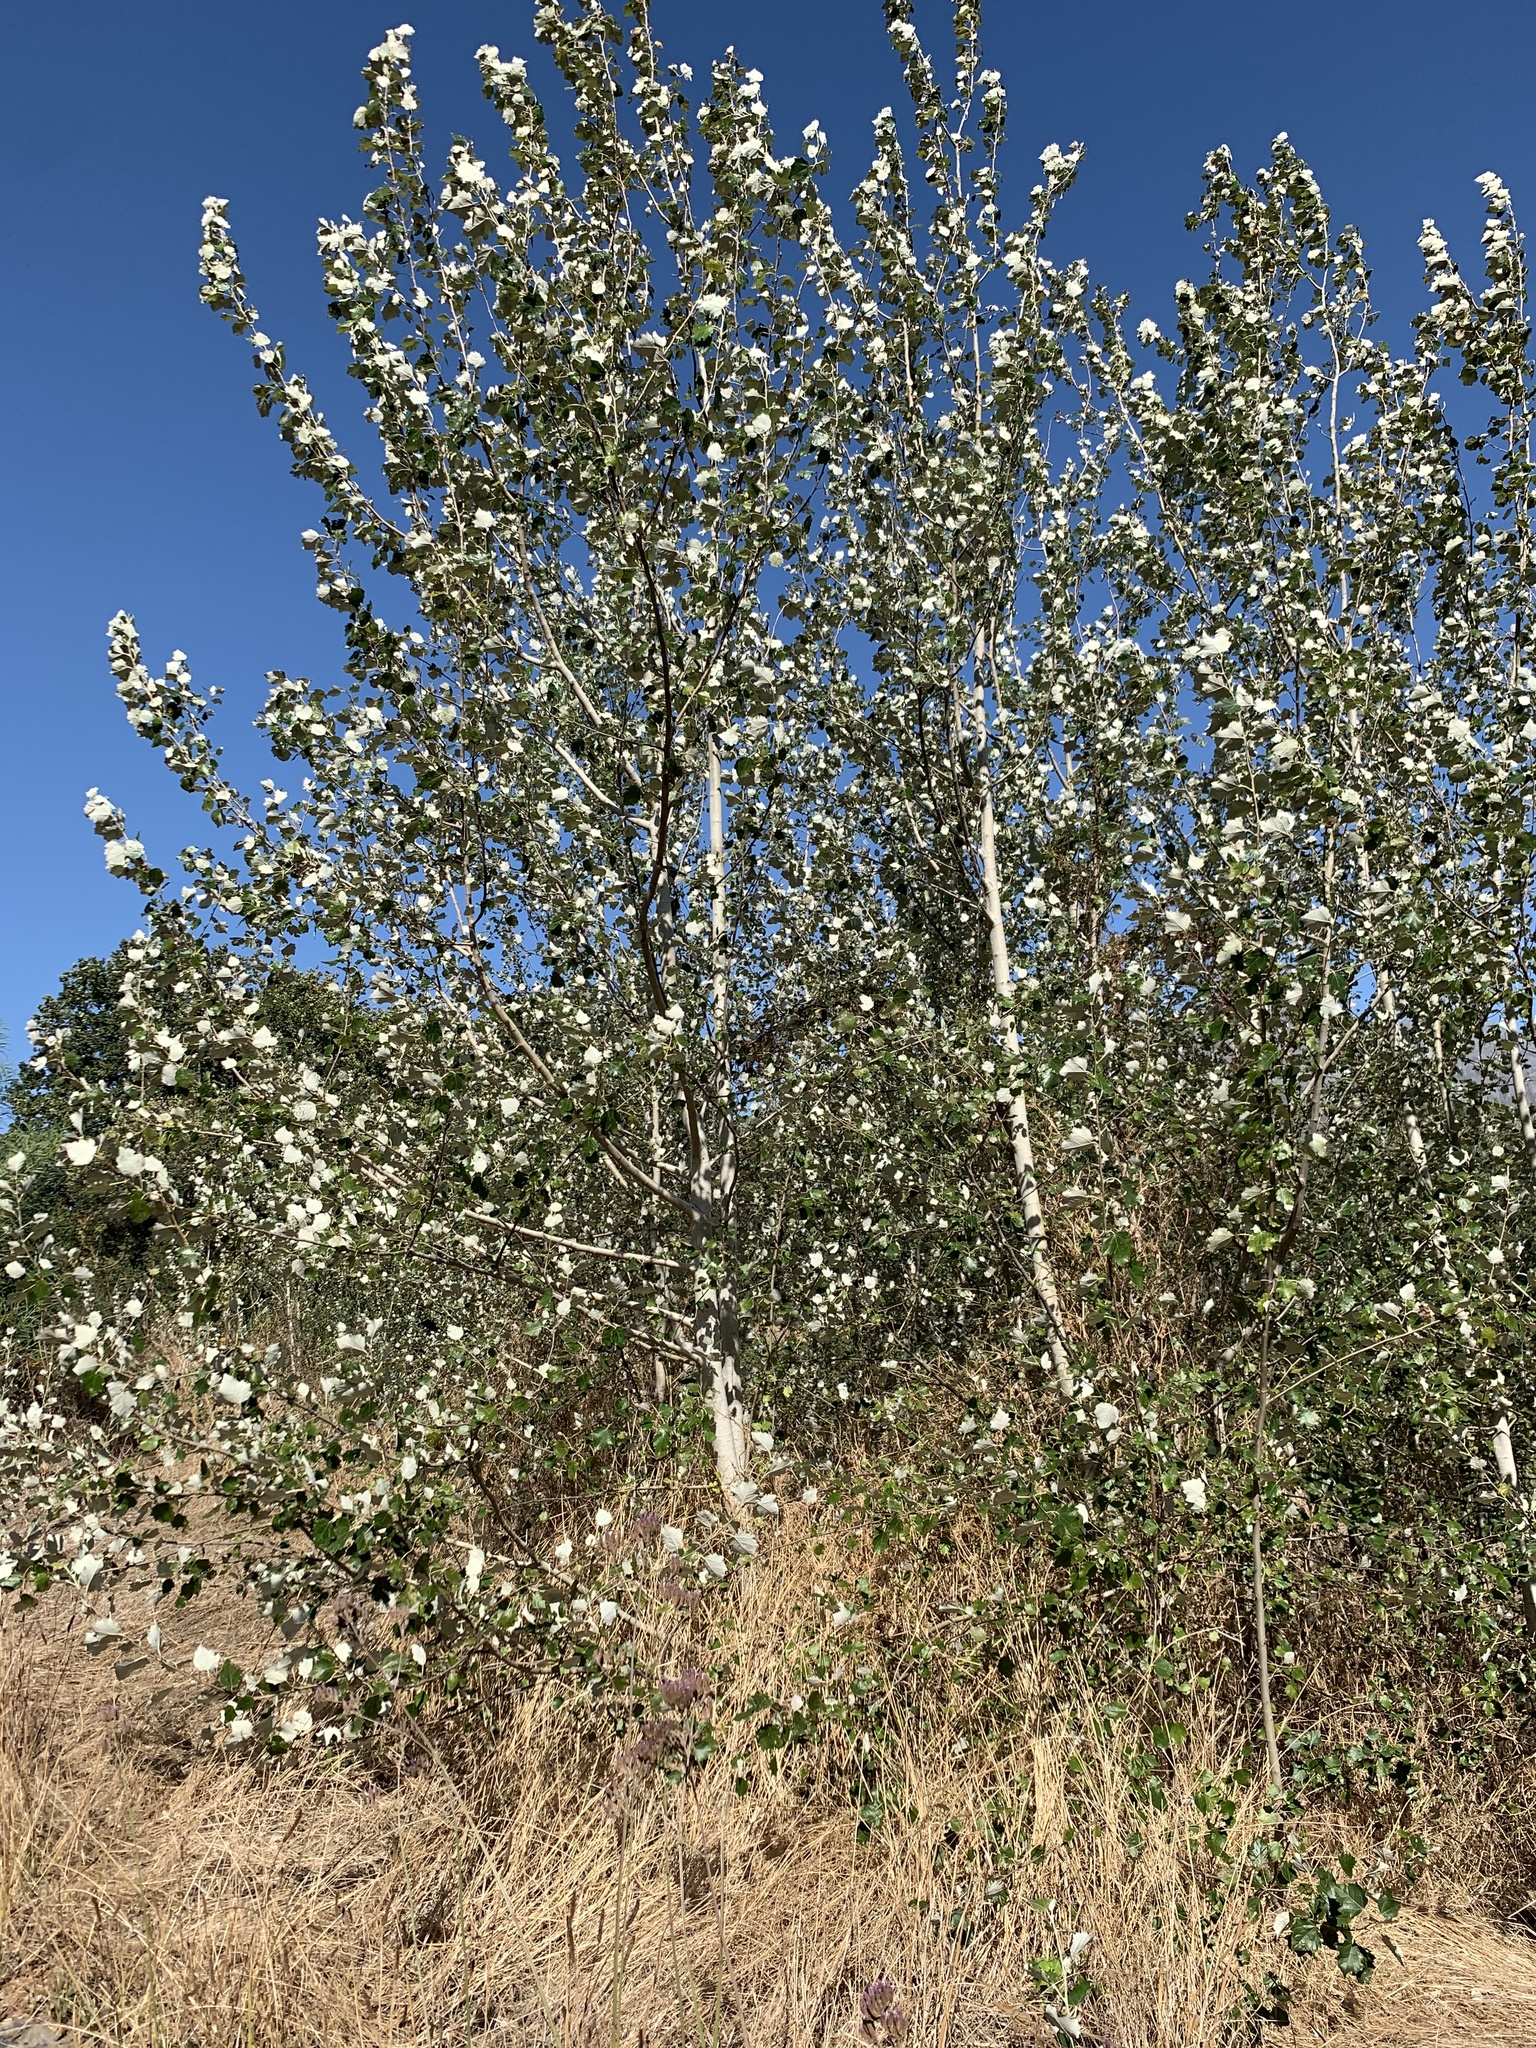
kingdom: Plantae
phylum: Tracheophyta
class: Magnoliopsida
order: Malpighiales
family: Salicaceae
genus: Populus
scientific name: Populus canescens
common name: Gray poplar
